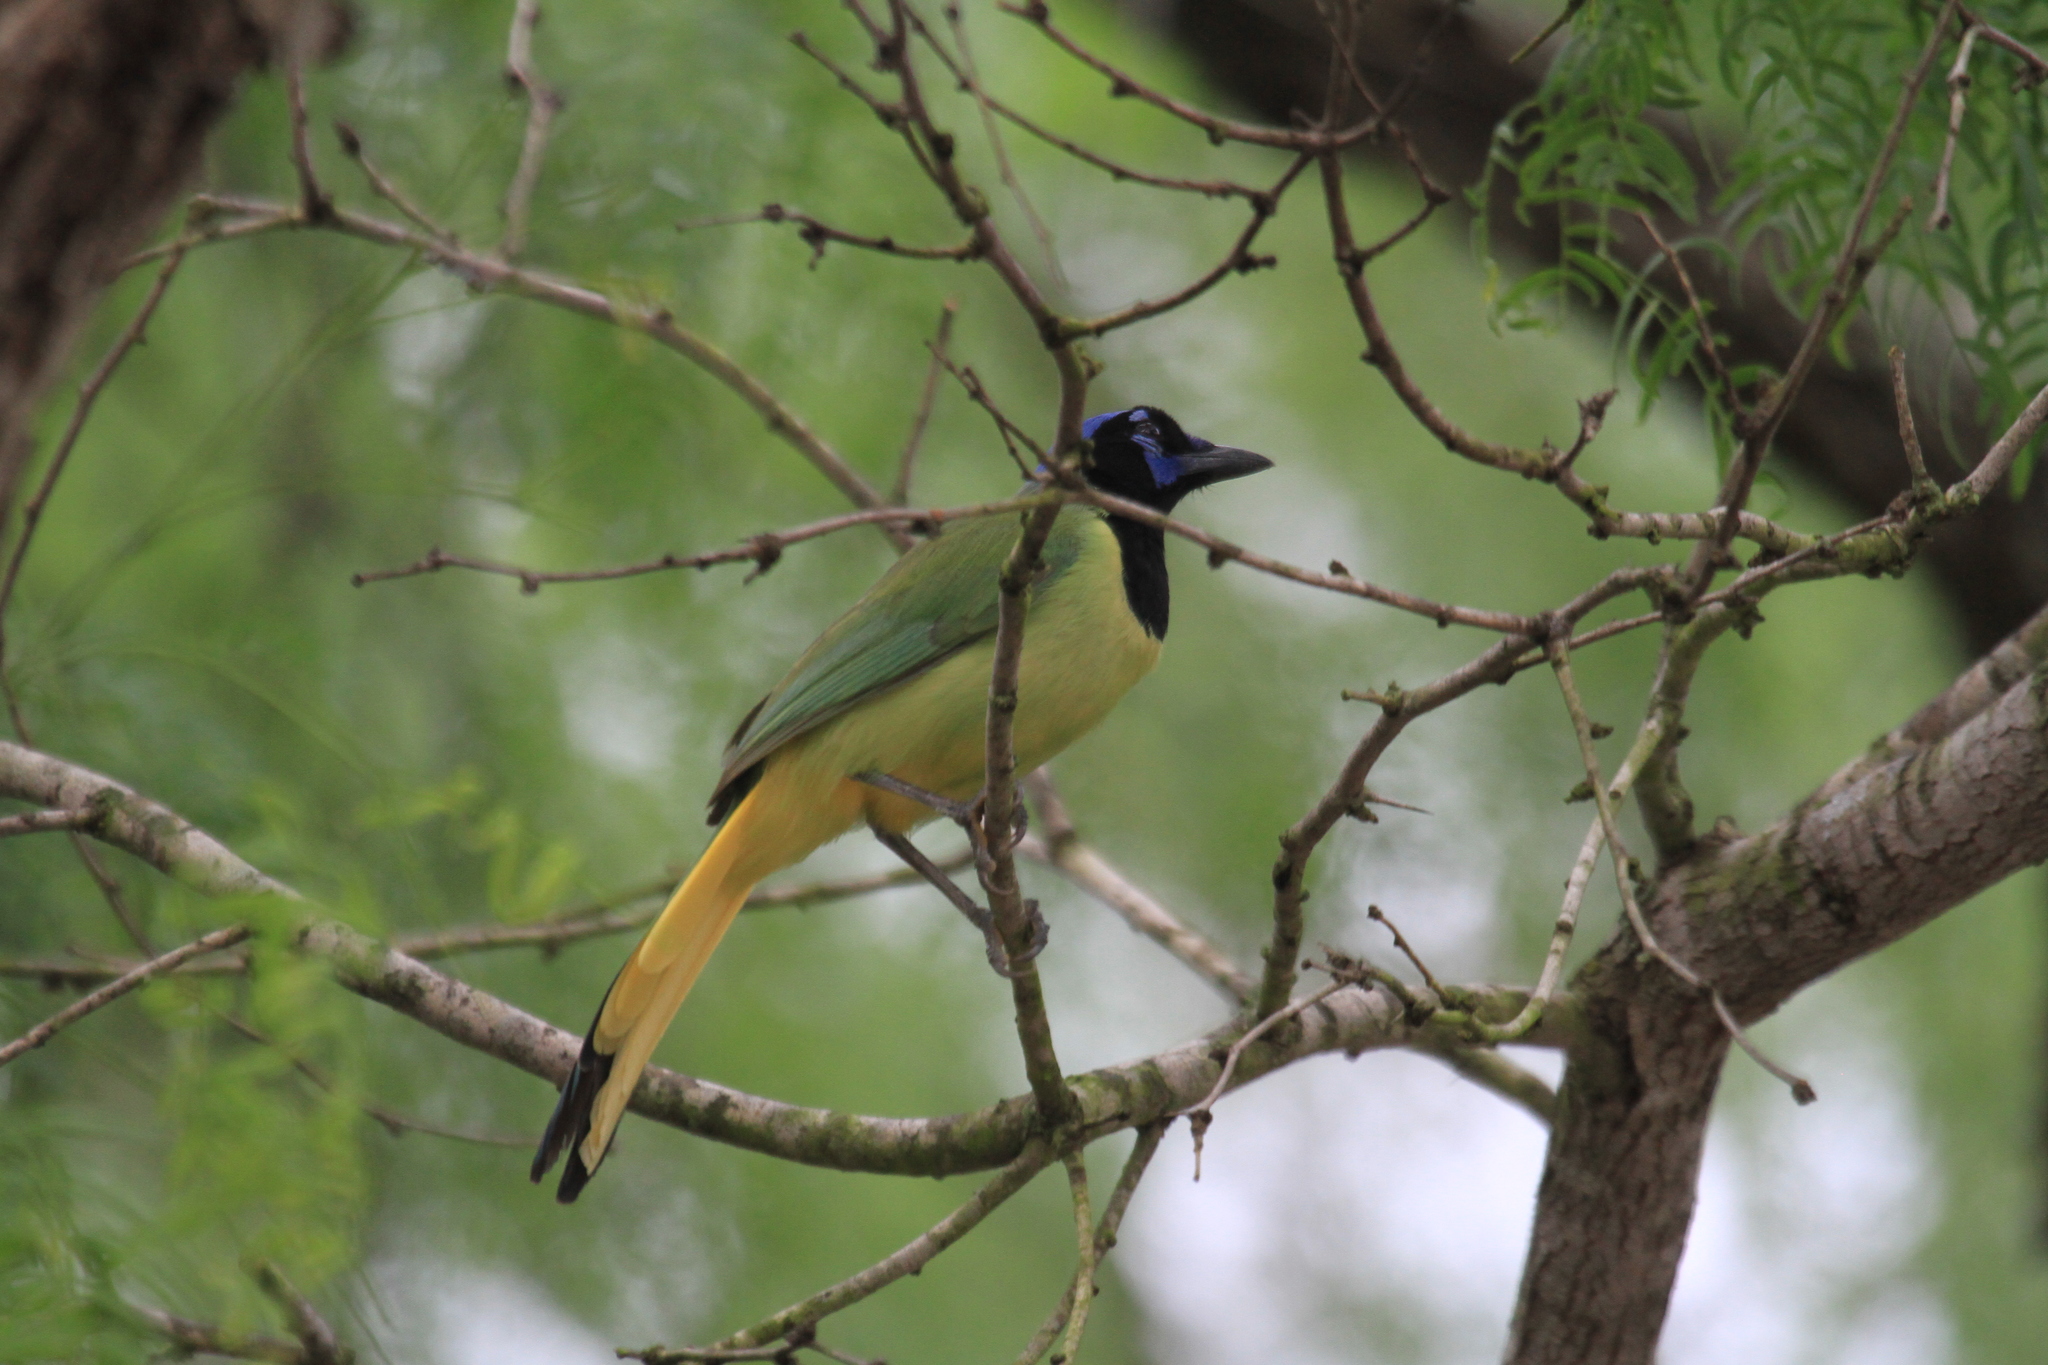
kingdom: Animalia
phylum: Chordata
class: Aves
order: Passeriformes
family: Corvidae
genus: Cyanocorax
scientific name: Cyanocorax yncas
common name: Green jay
